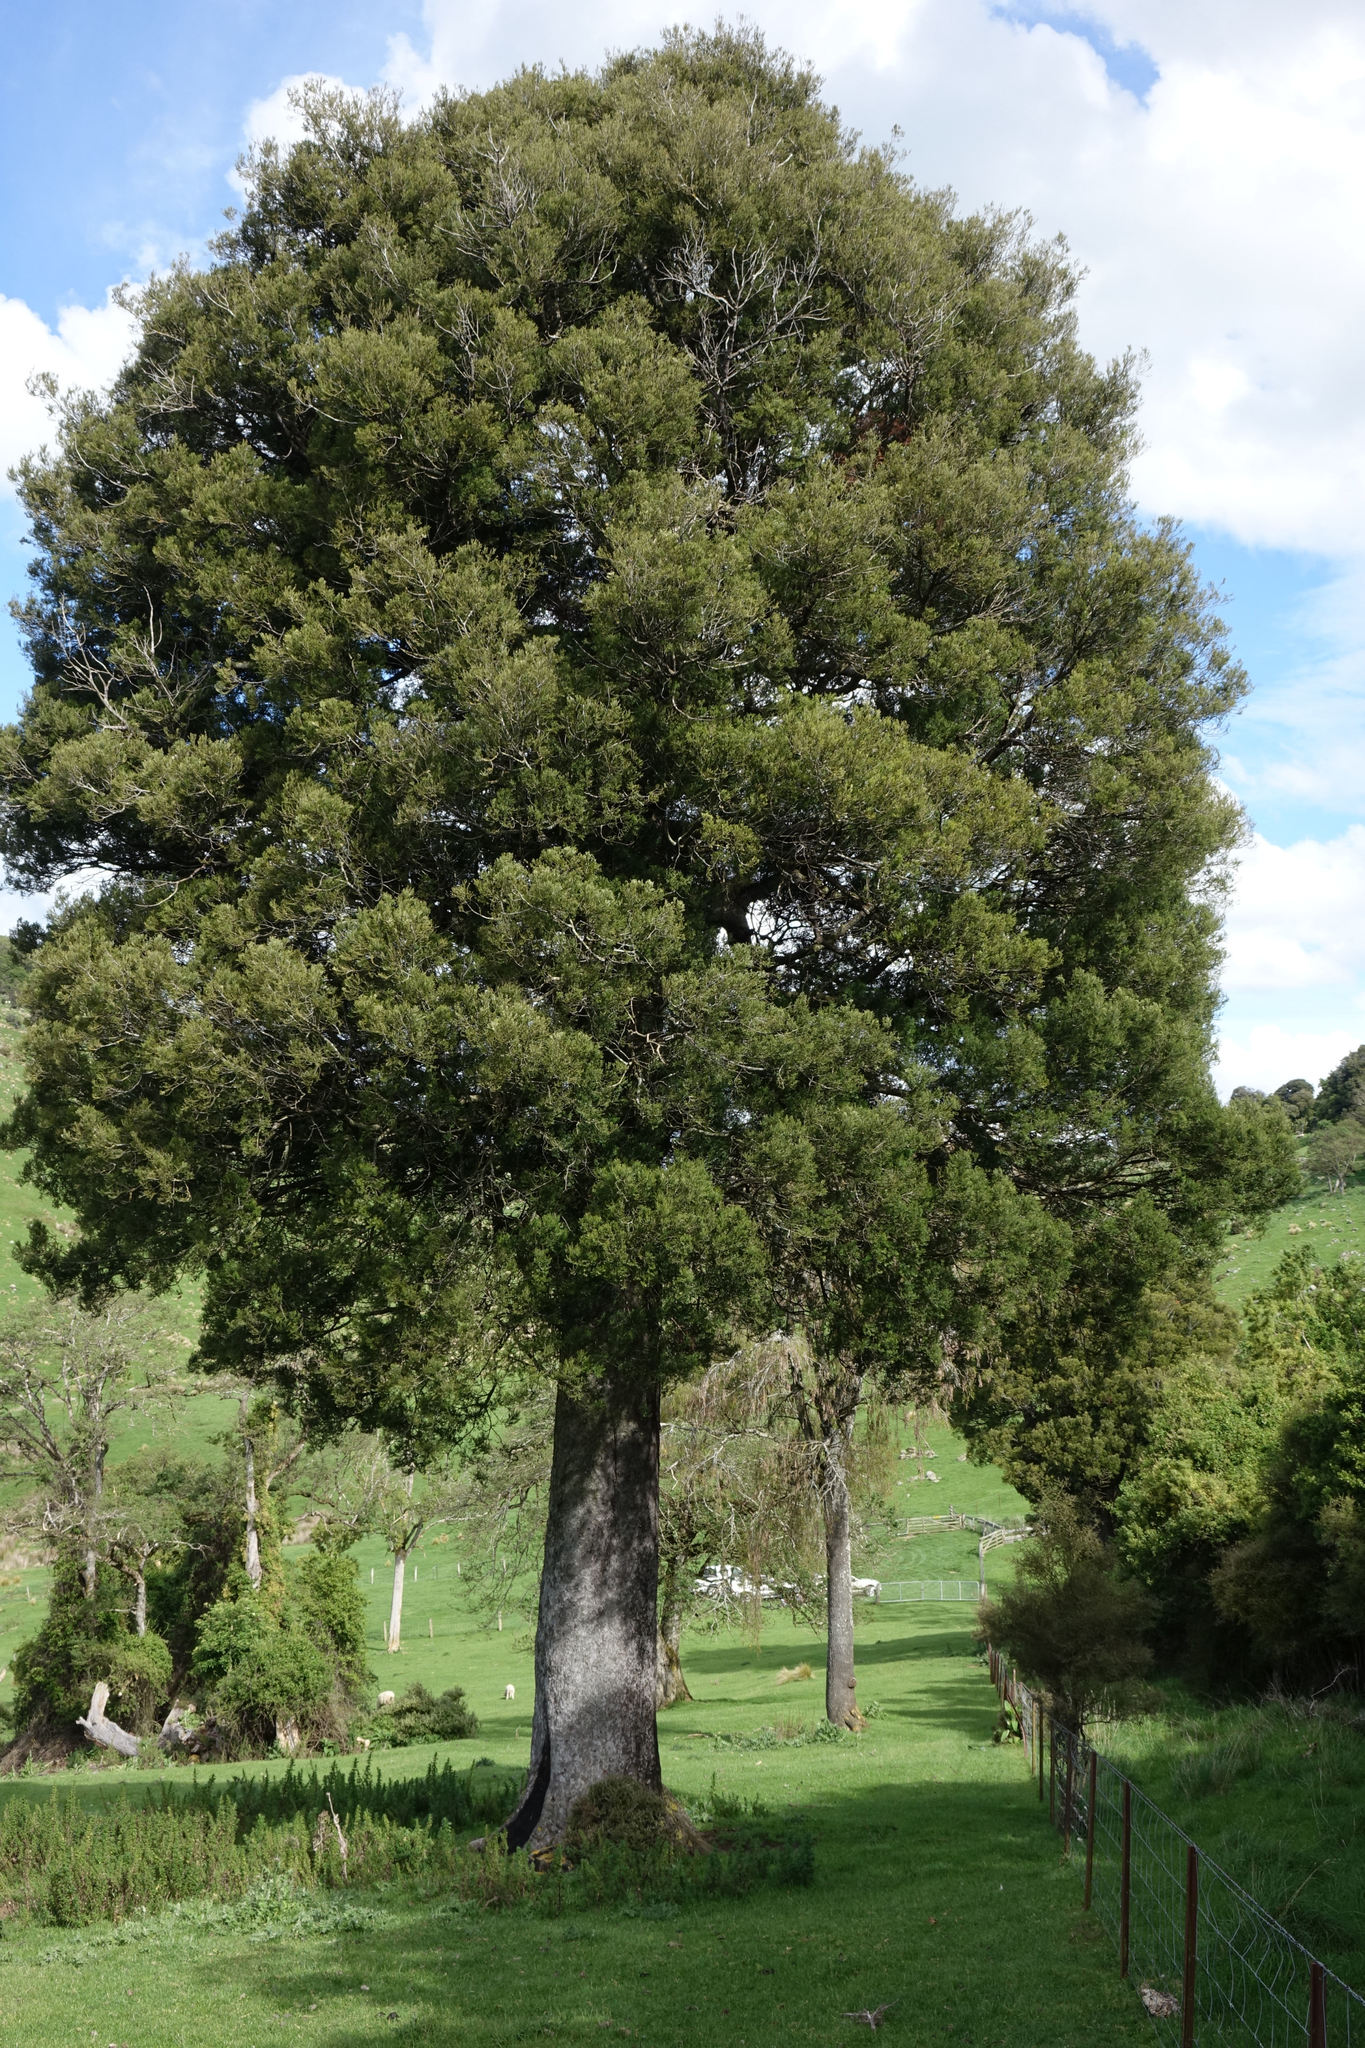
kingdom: Plantae
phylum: Tracheophyta
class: Pinopsida
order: Pinales
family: Podocarpaceae
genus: Dacrycarpus
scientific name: Dacrycarpus dacrydioides
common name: White pine
